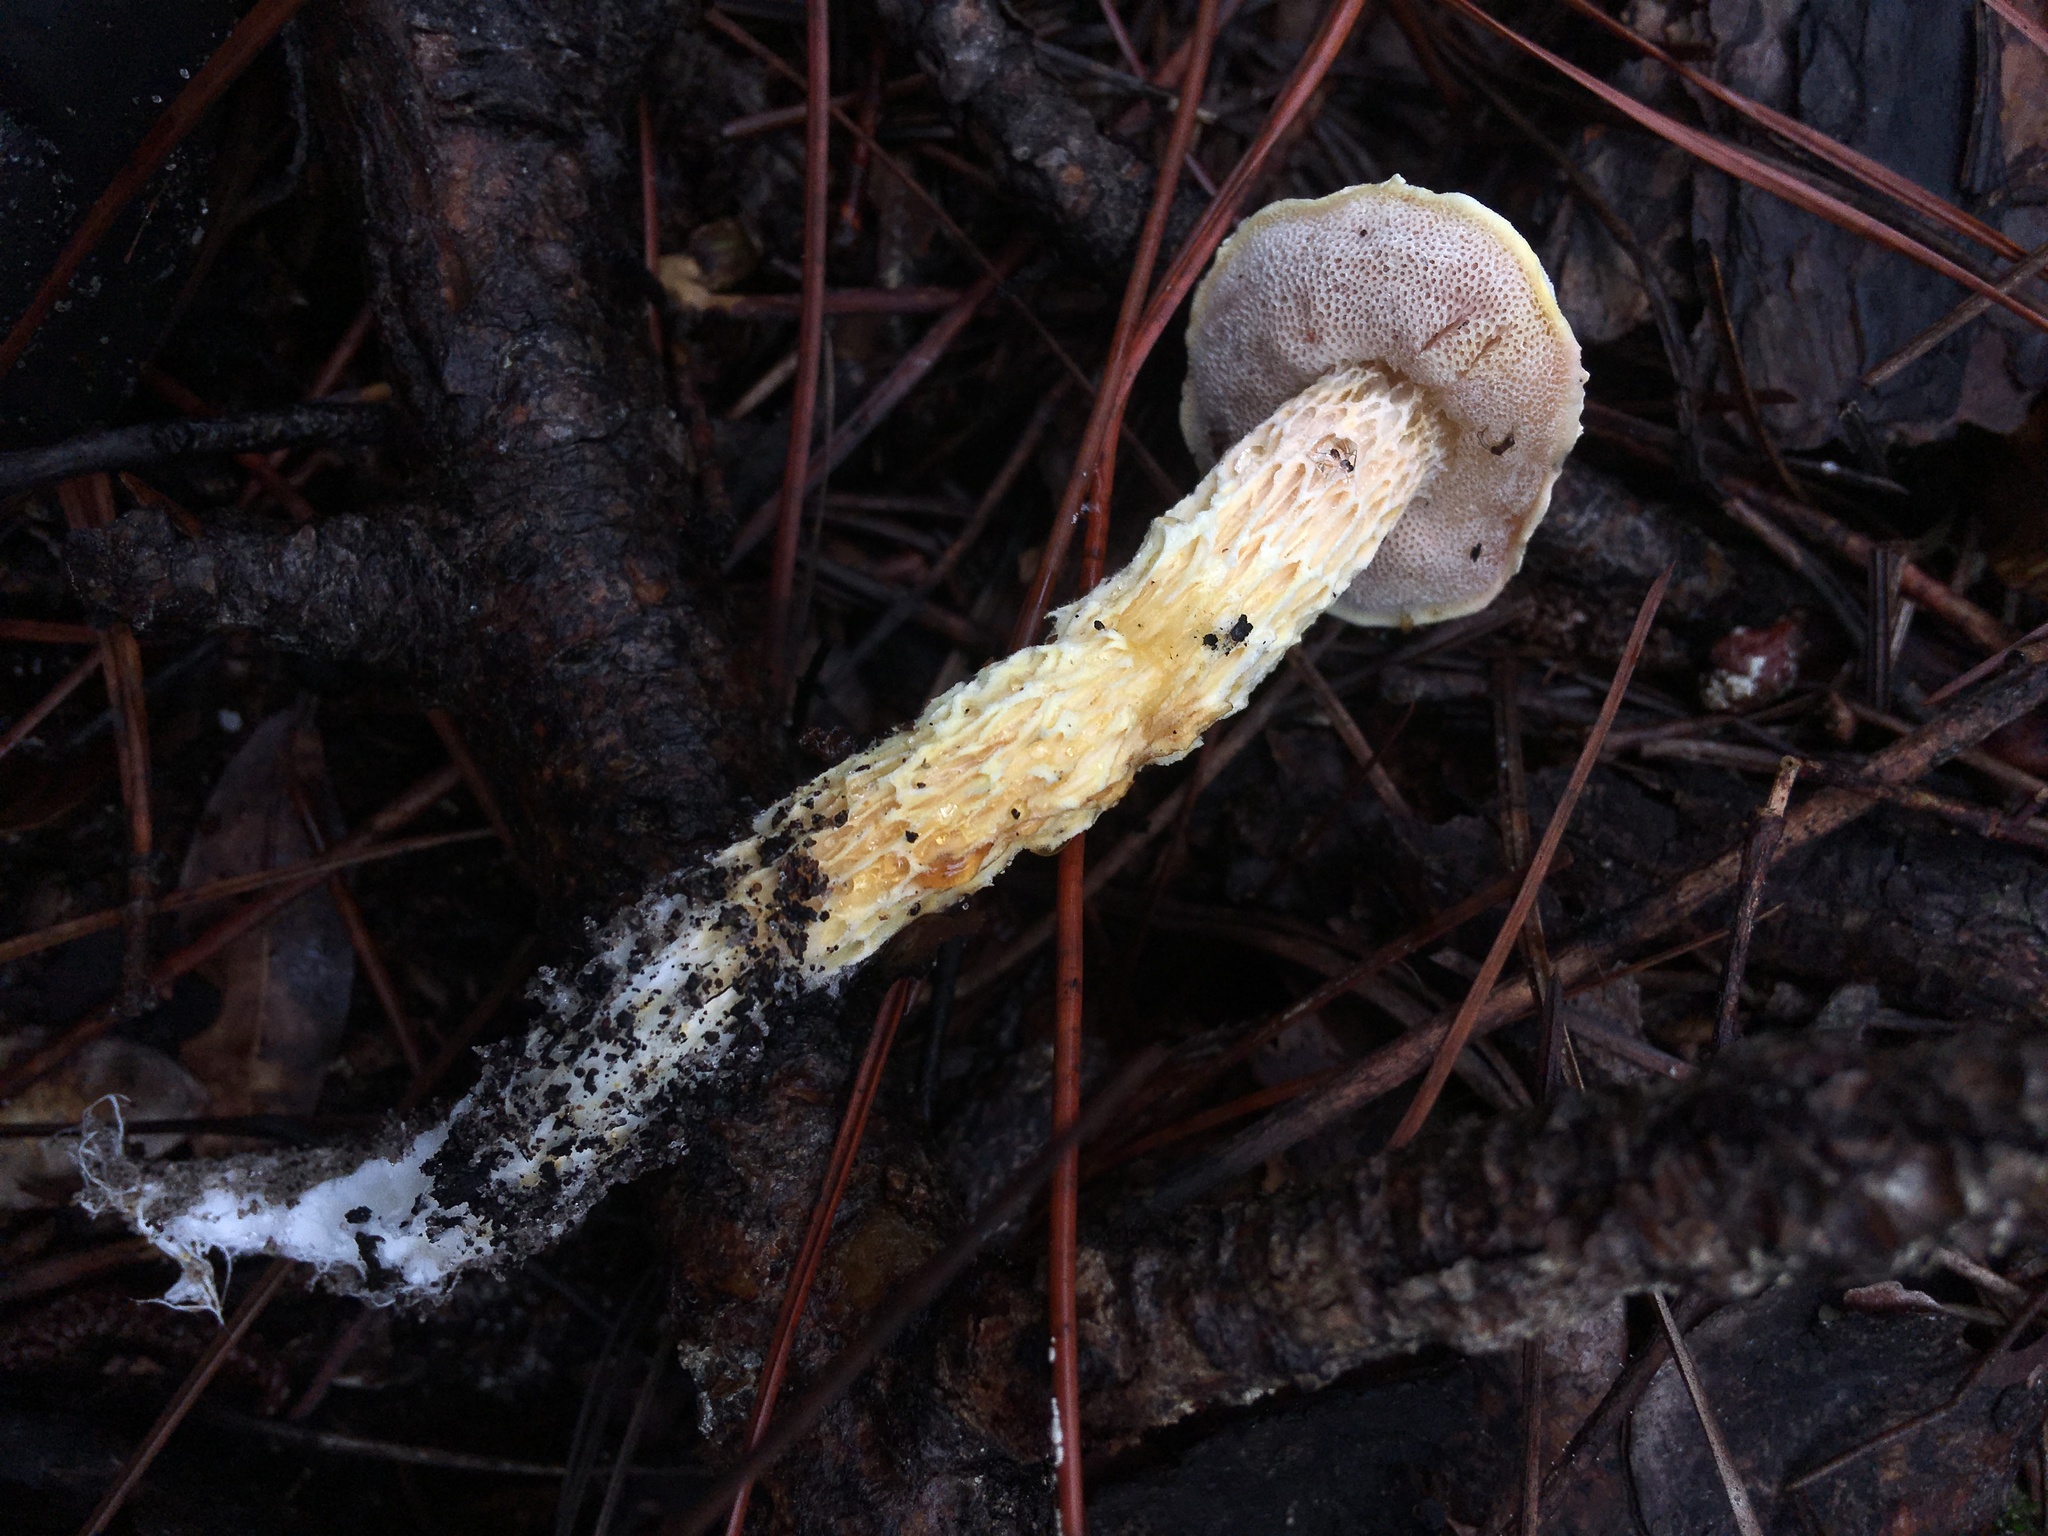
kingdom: Fungi
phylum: Basidiomycota
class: Agaricomycetes
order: Boletales
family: Boletaceae
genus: Austroboletus
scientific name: Austroboletus subflavidus
